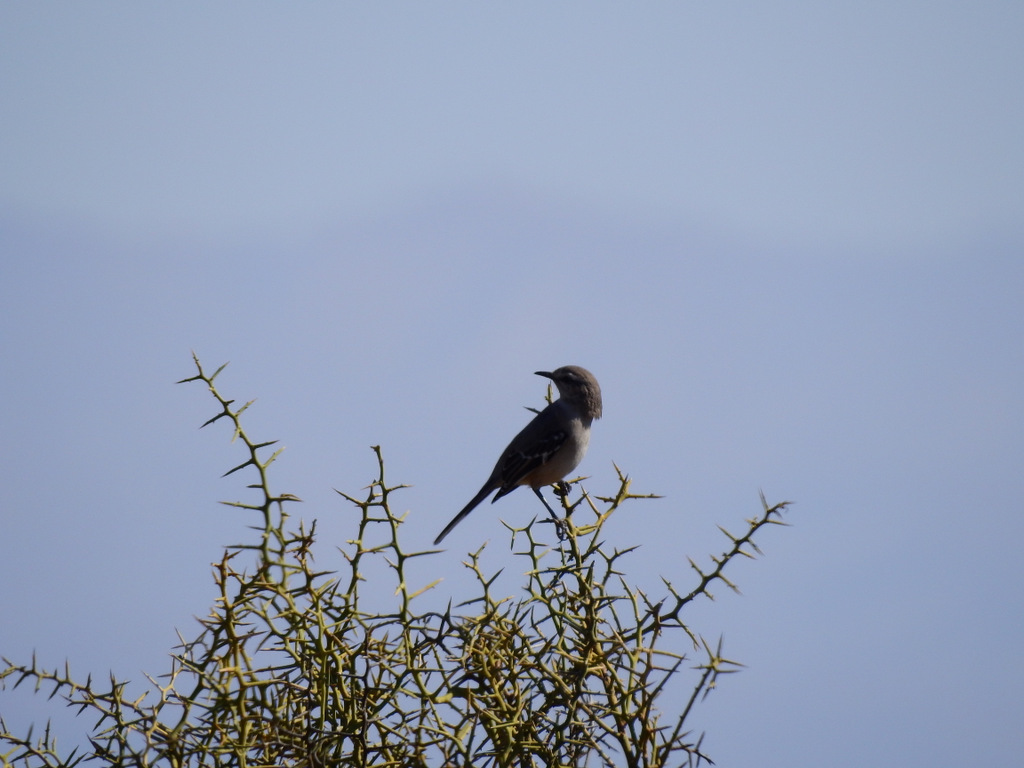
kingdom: Animalia
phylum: Chordata
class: Aves
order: Passeriformes
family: Mimidae
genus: Mimus
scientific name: Mimus patagonicus
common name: Patagonian mockingbird
